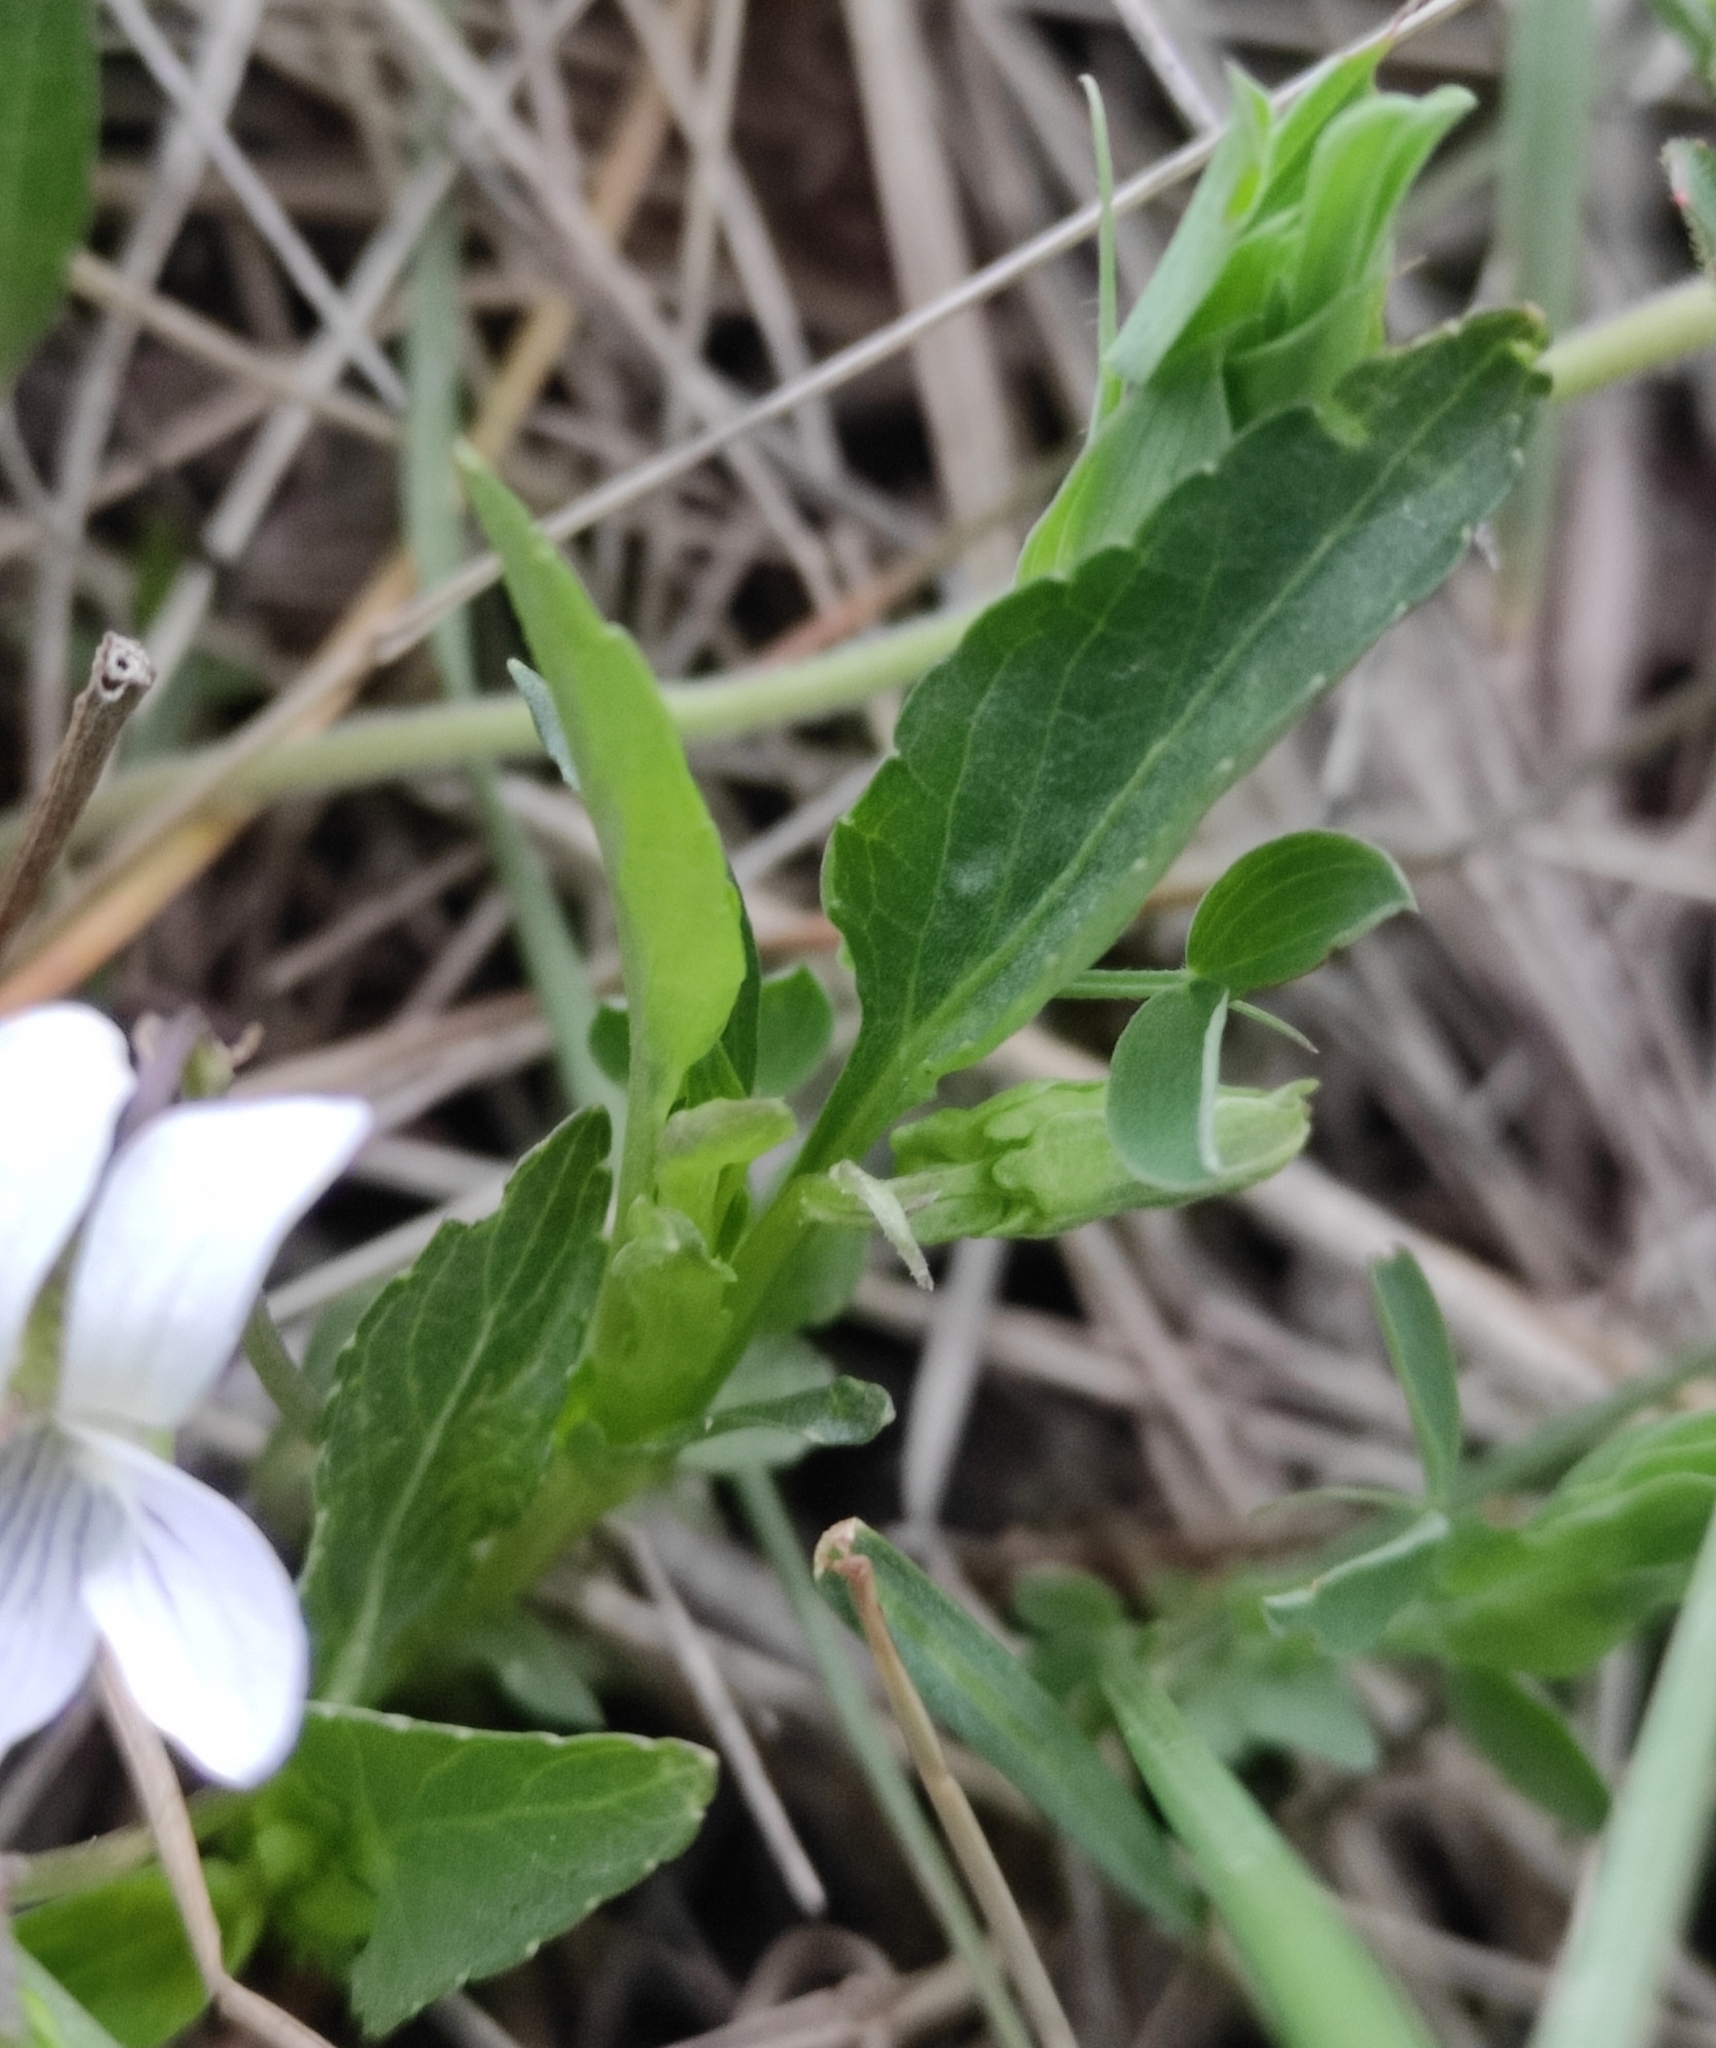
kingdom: Plantae
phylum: Tracheophyta
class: Magnoliopsida
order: Malpighiales
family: Violaceae
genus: Viola
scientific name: Viola stagnina
